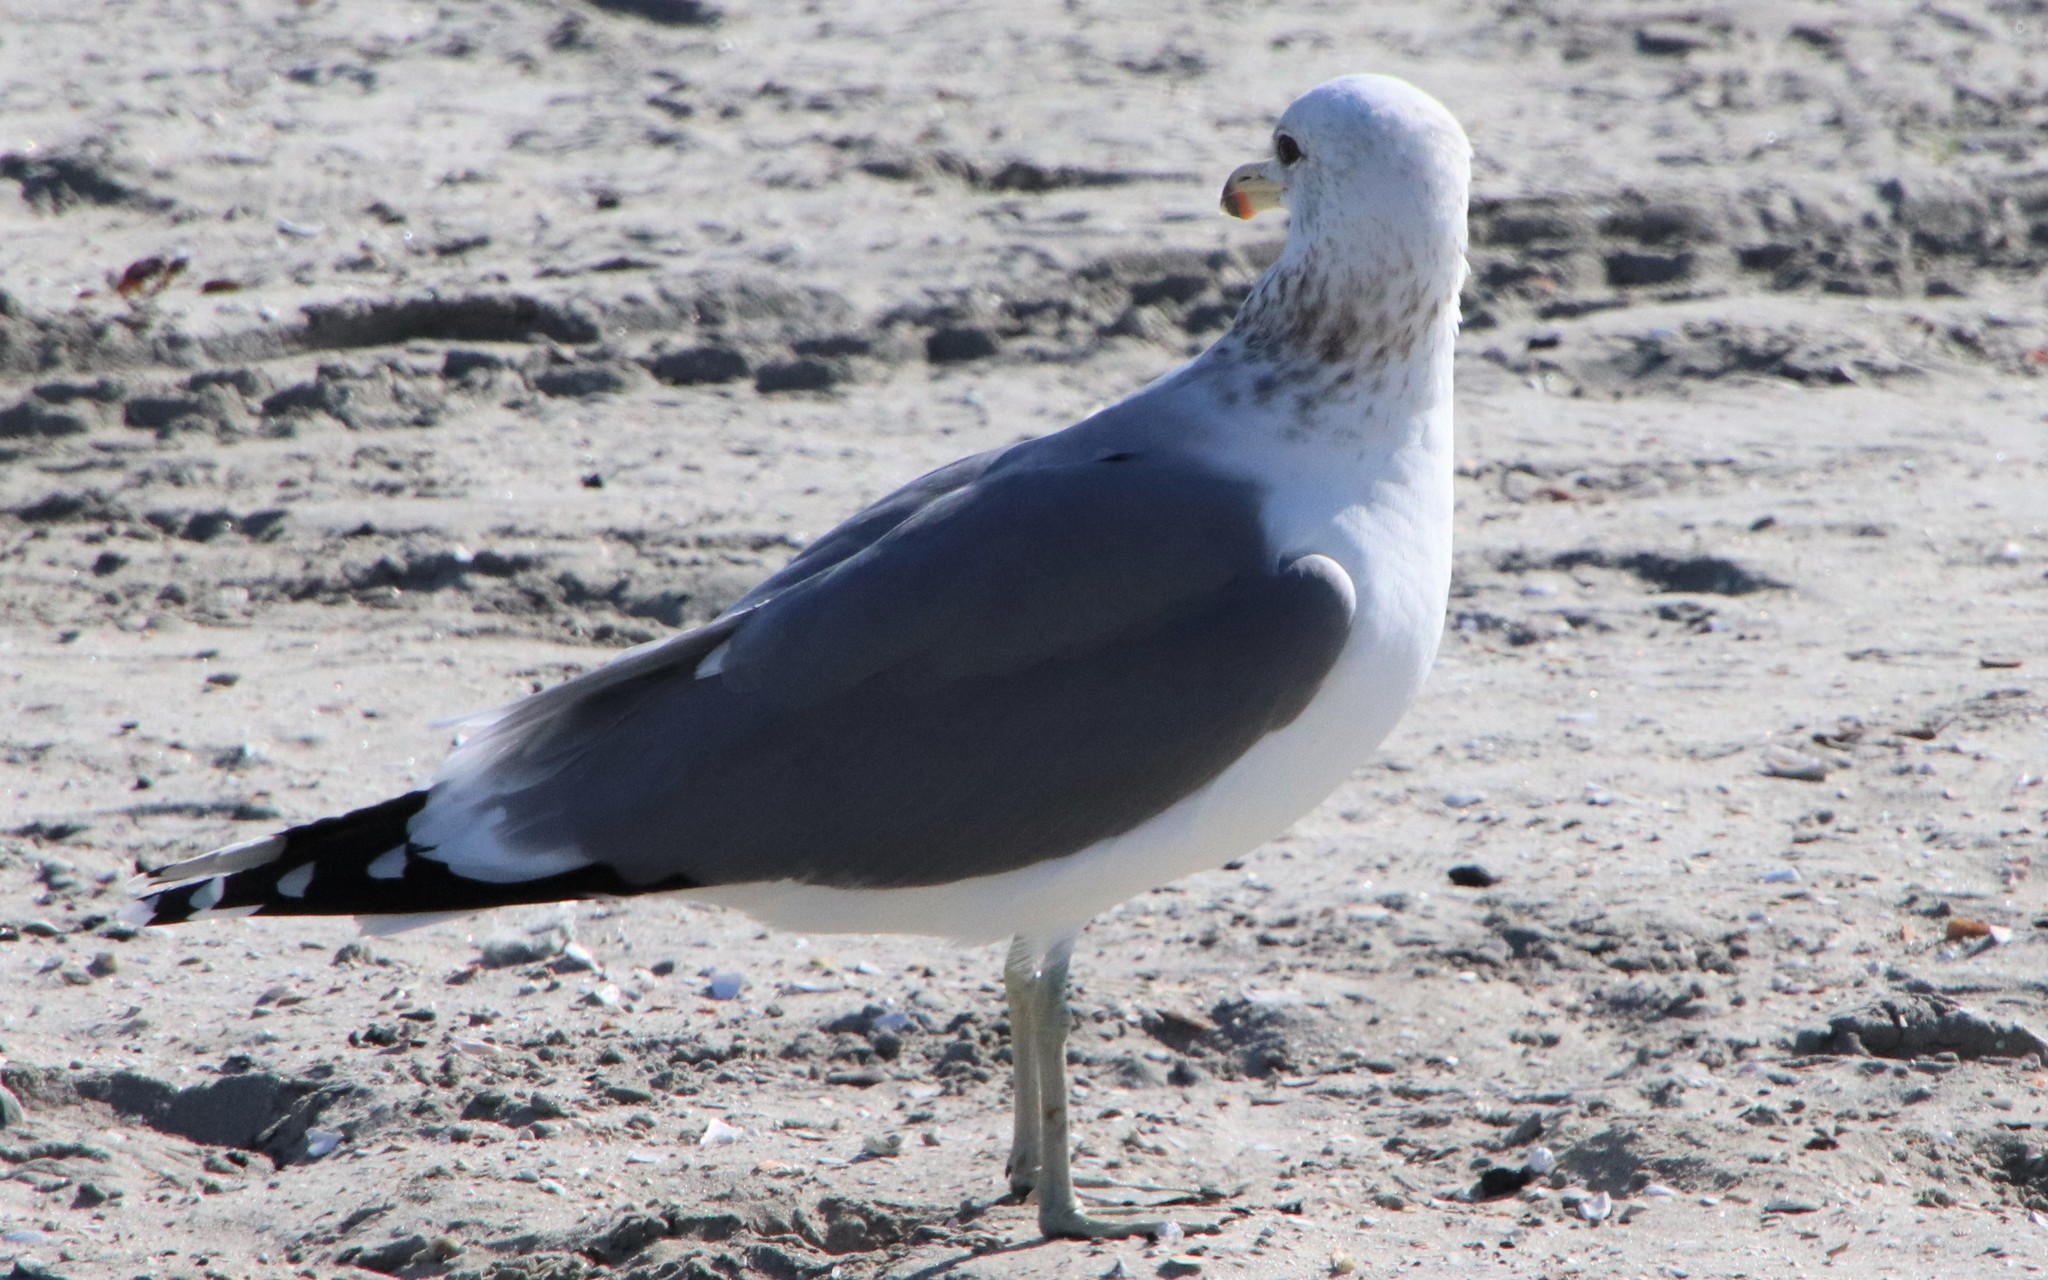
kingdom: Animalia
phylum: Chordata
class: Aves
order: Charadriiformes
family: Laridae
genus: Larus
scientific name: Larus californicus
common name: California gull
